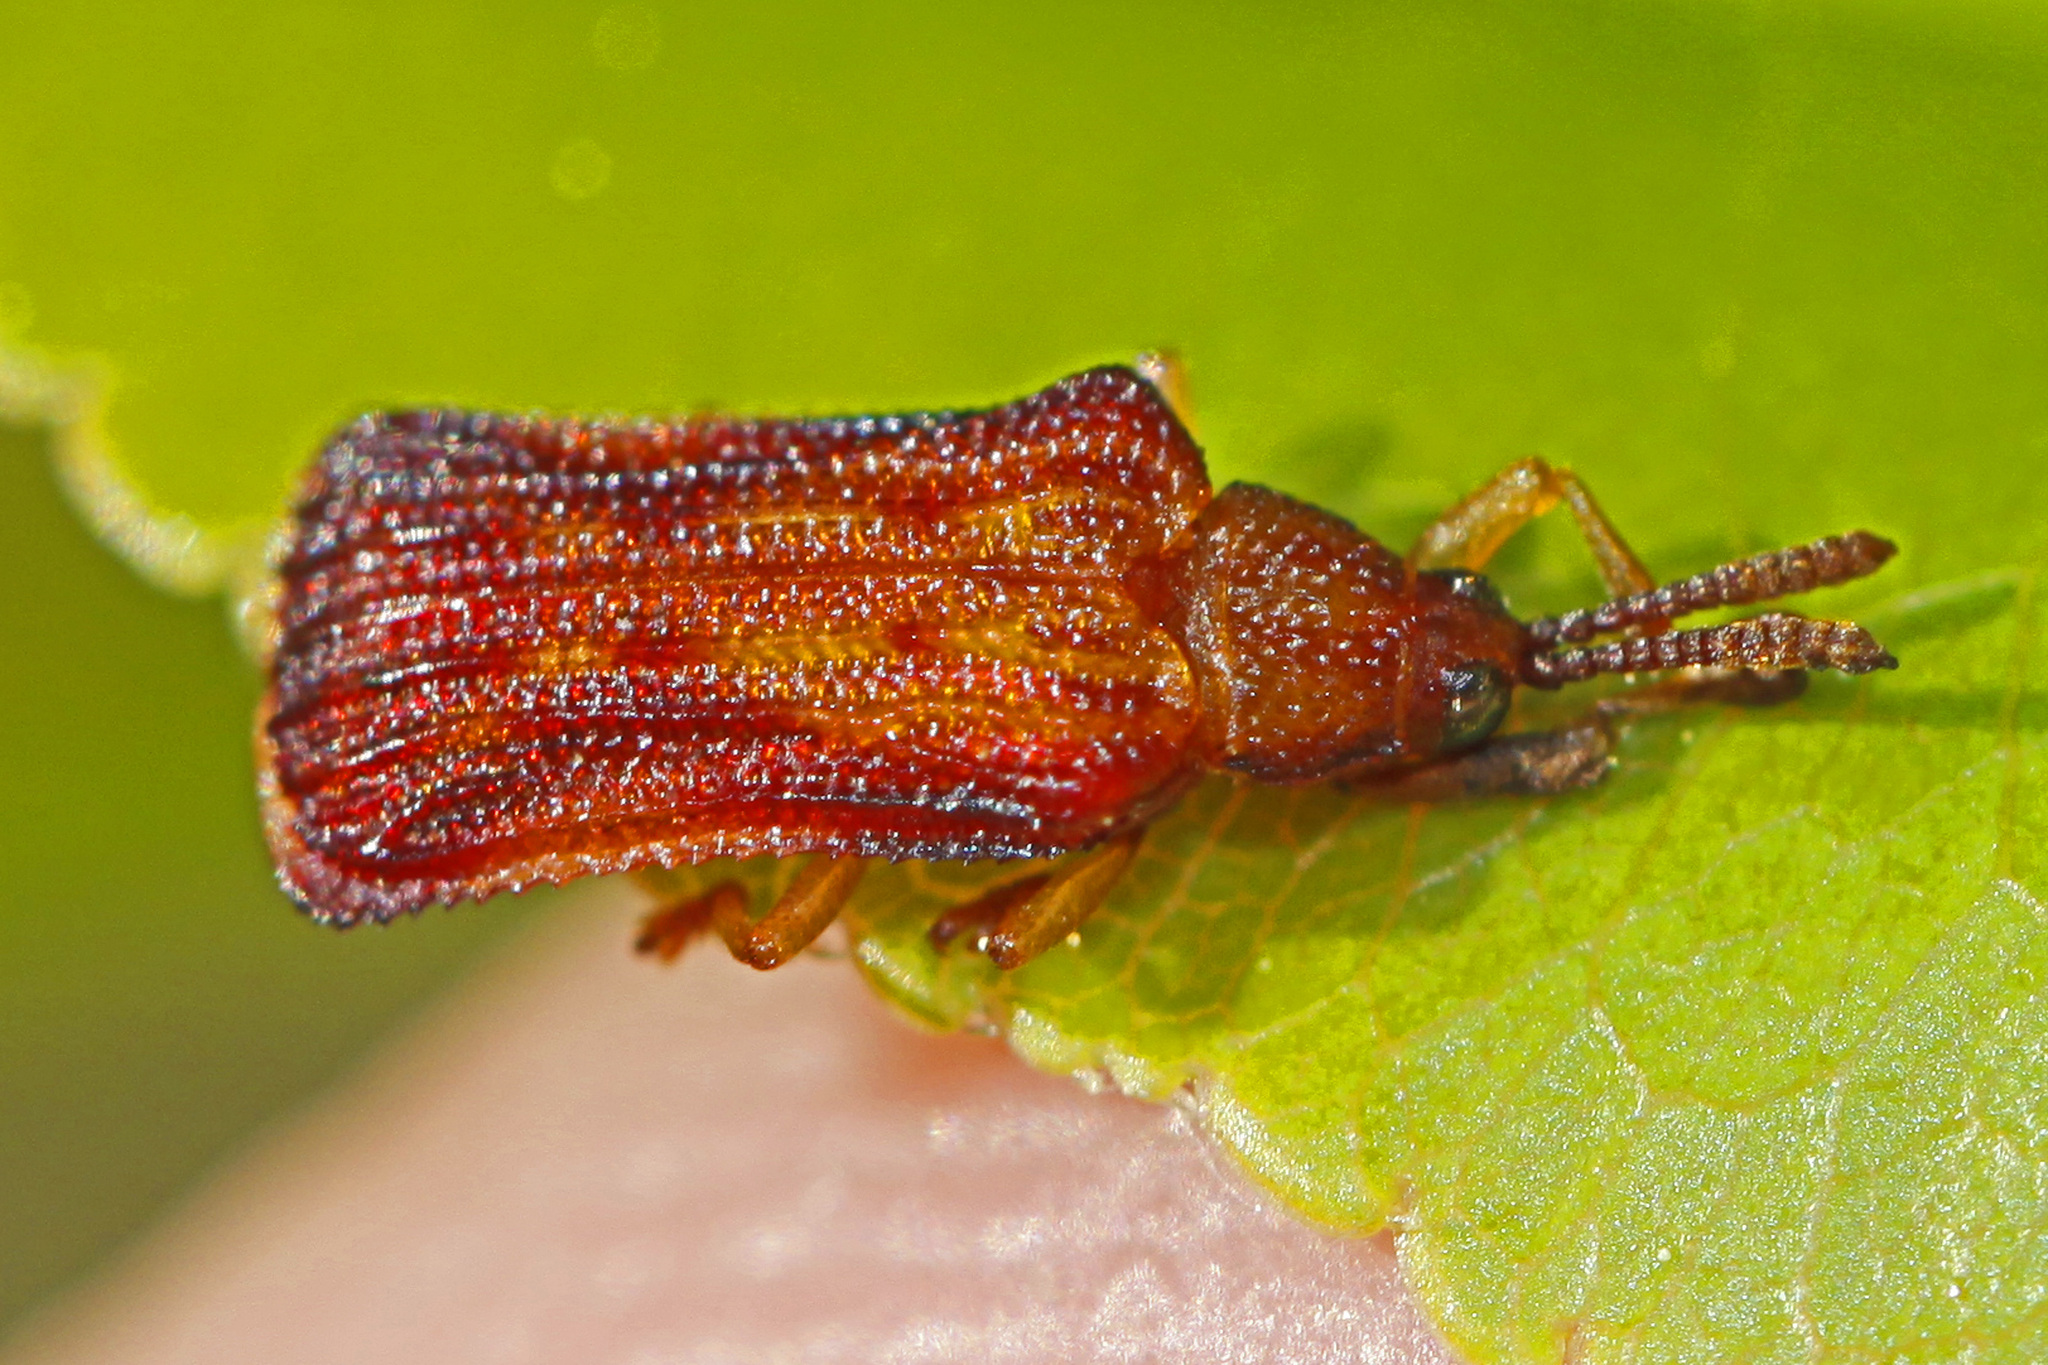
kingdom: Animalia
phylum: Arthropoda
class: Insecta
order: Coleoptera
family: Chrysomelidae
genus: Baliosus
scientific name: Baliosus nervosus
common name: Basswood leaf miner
